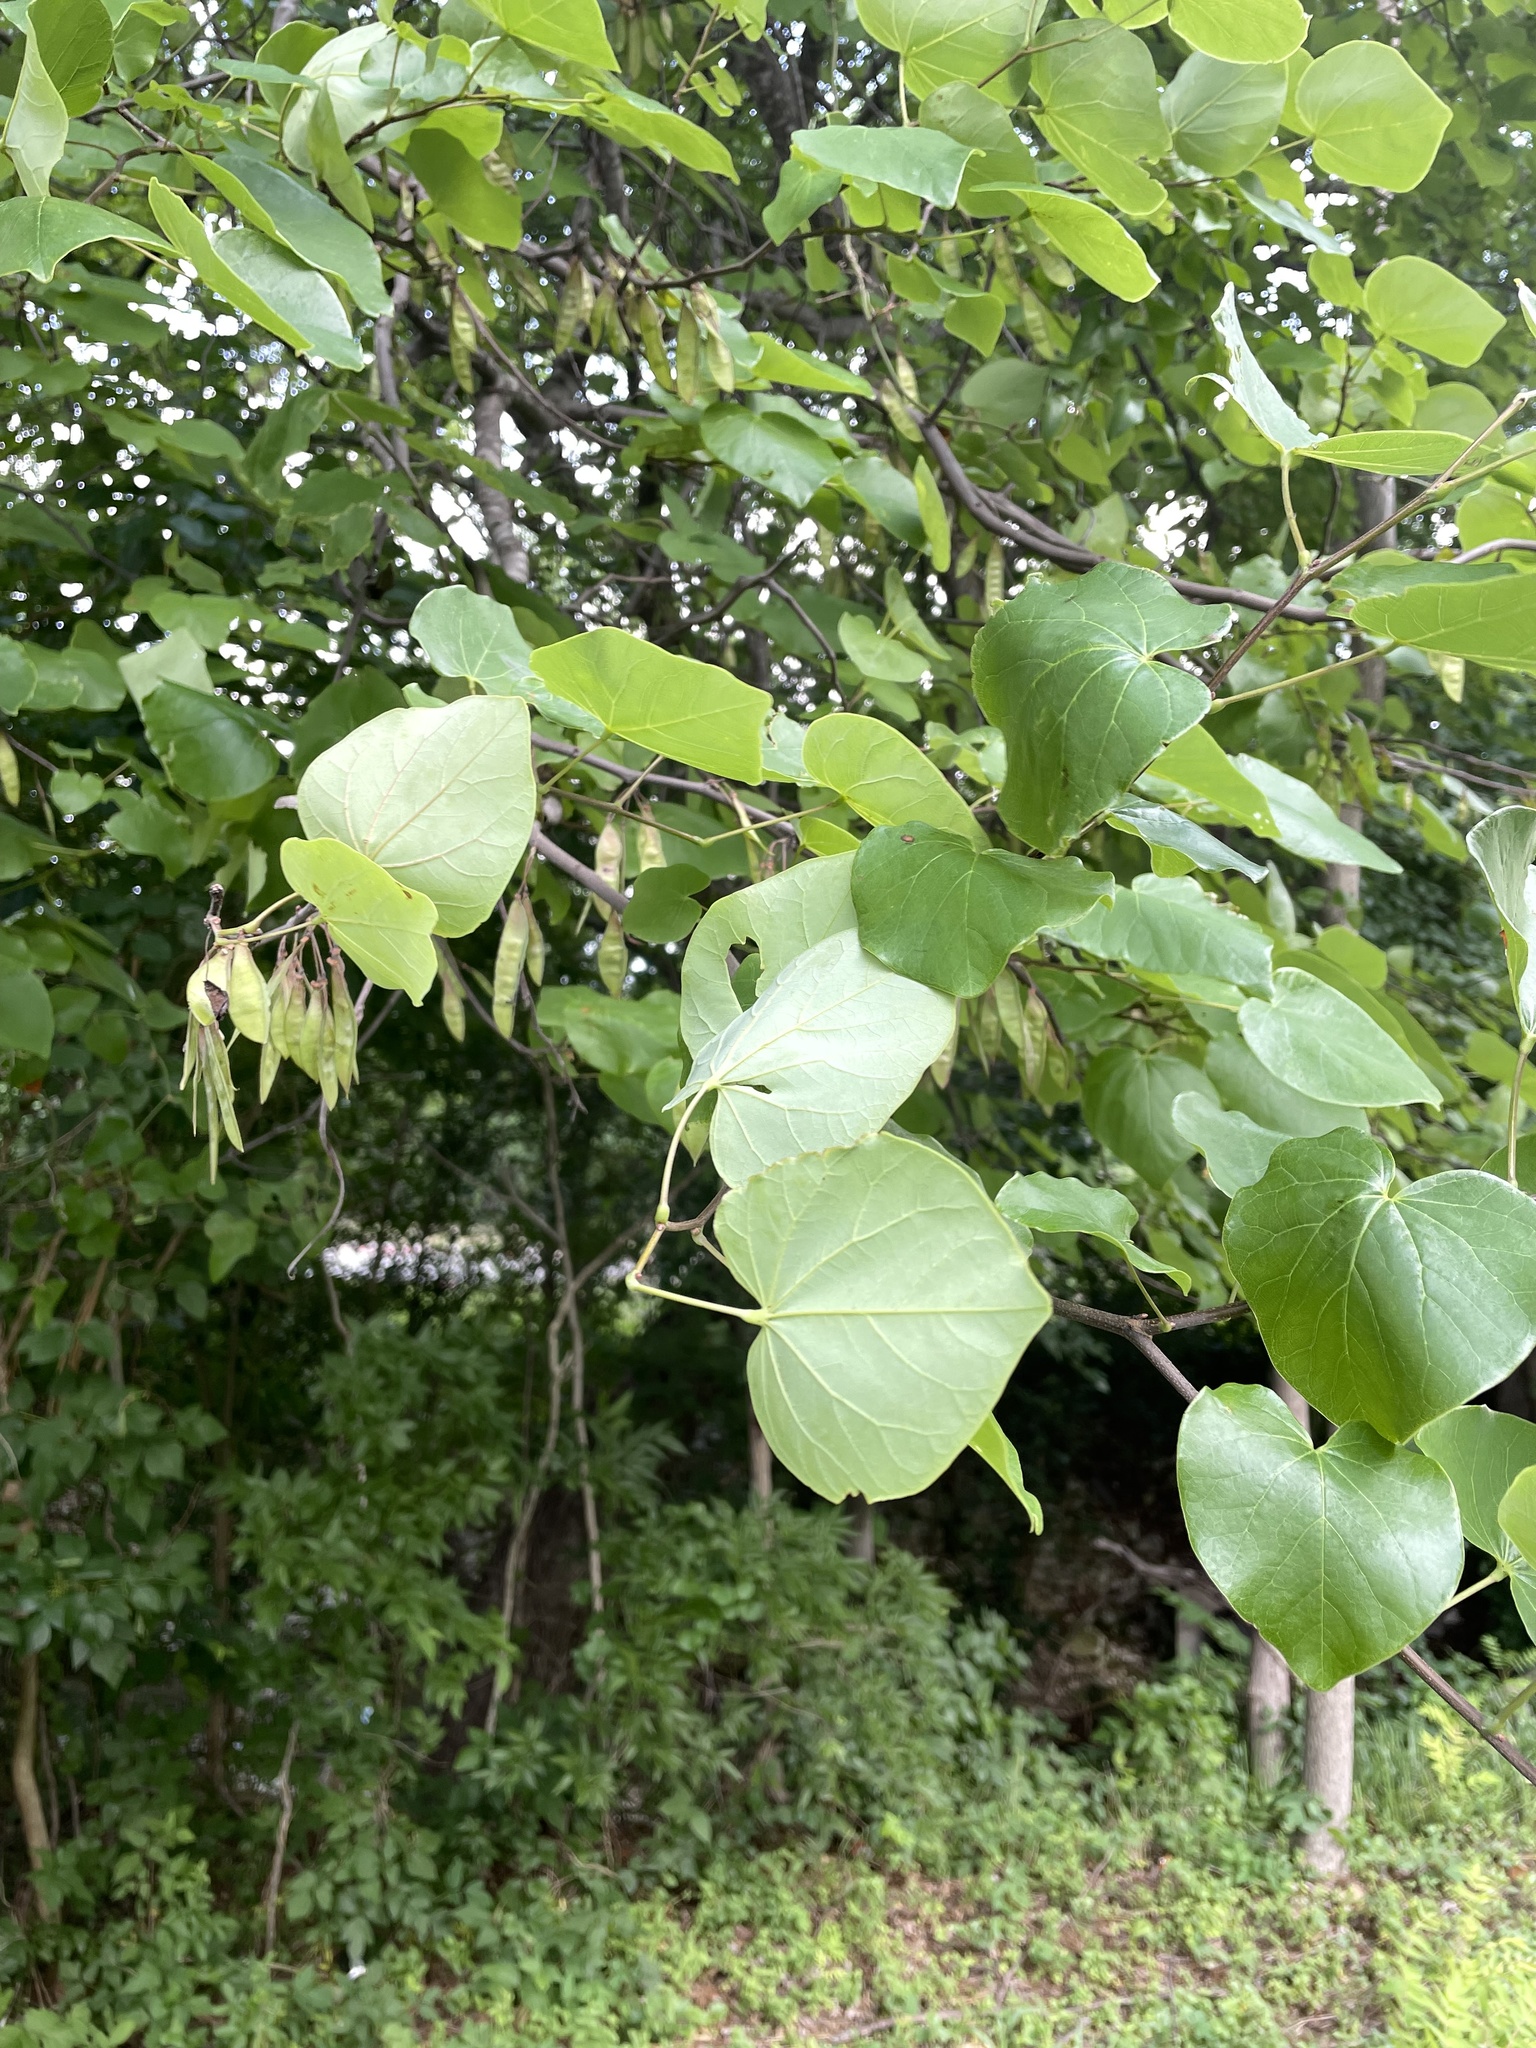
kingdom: Plantae
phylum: Tracheophyta
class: Magnoliopsida
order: Fabales
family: Fabaceae
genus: Cercis
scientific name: Cercis canadensis
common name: Eastern redbud
